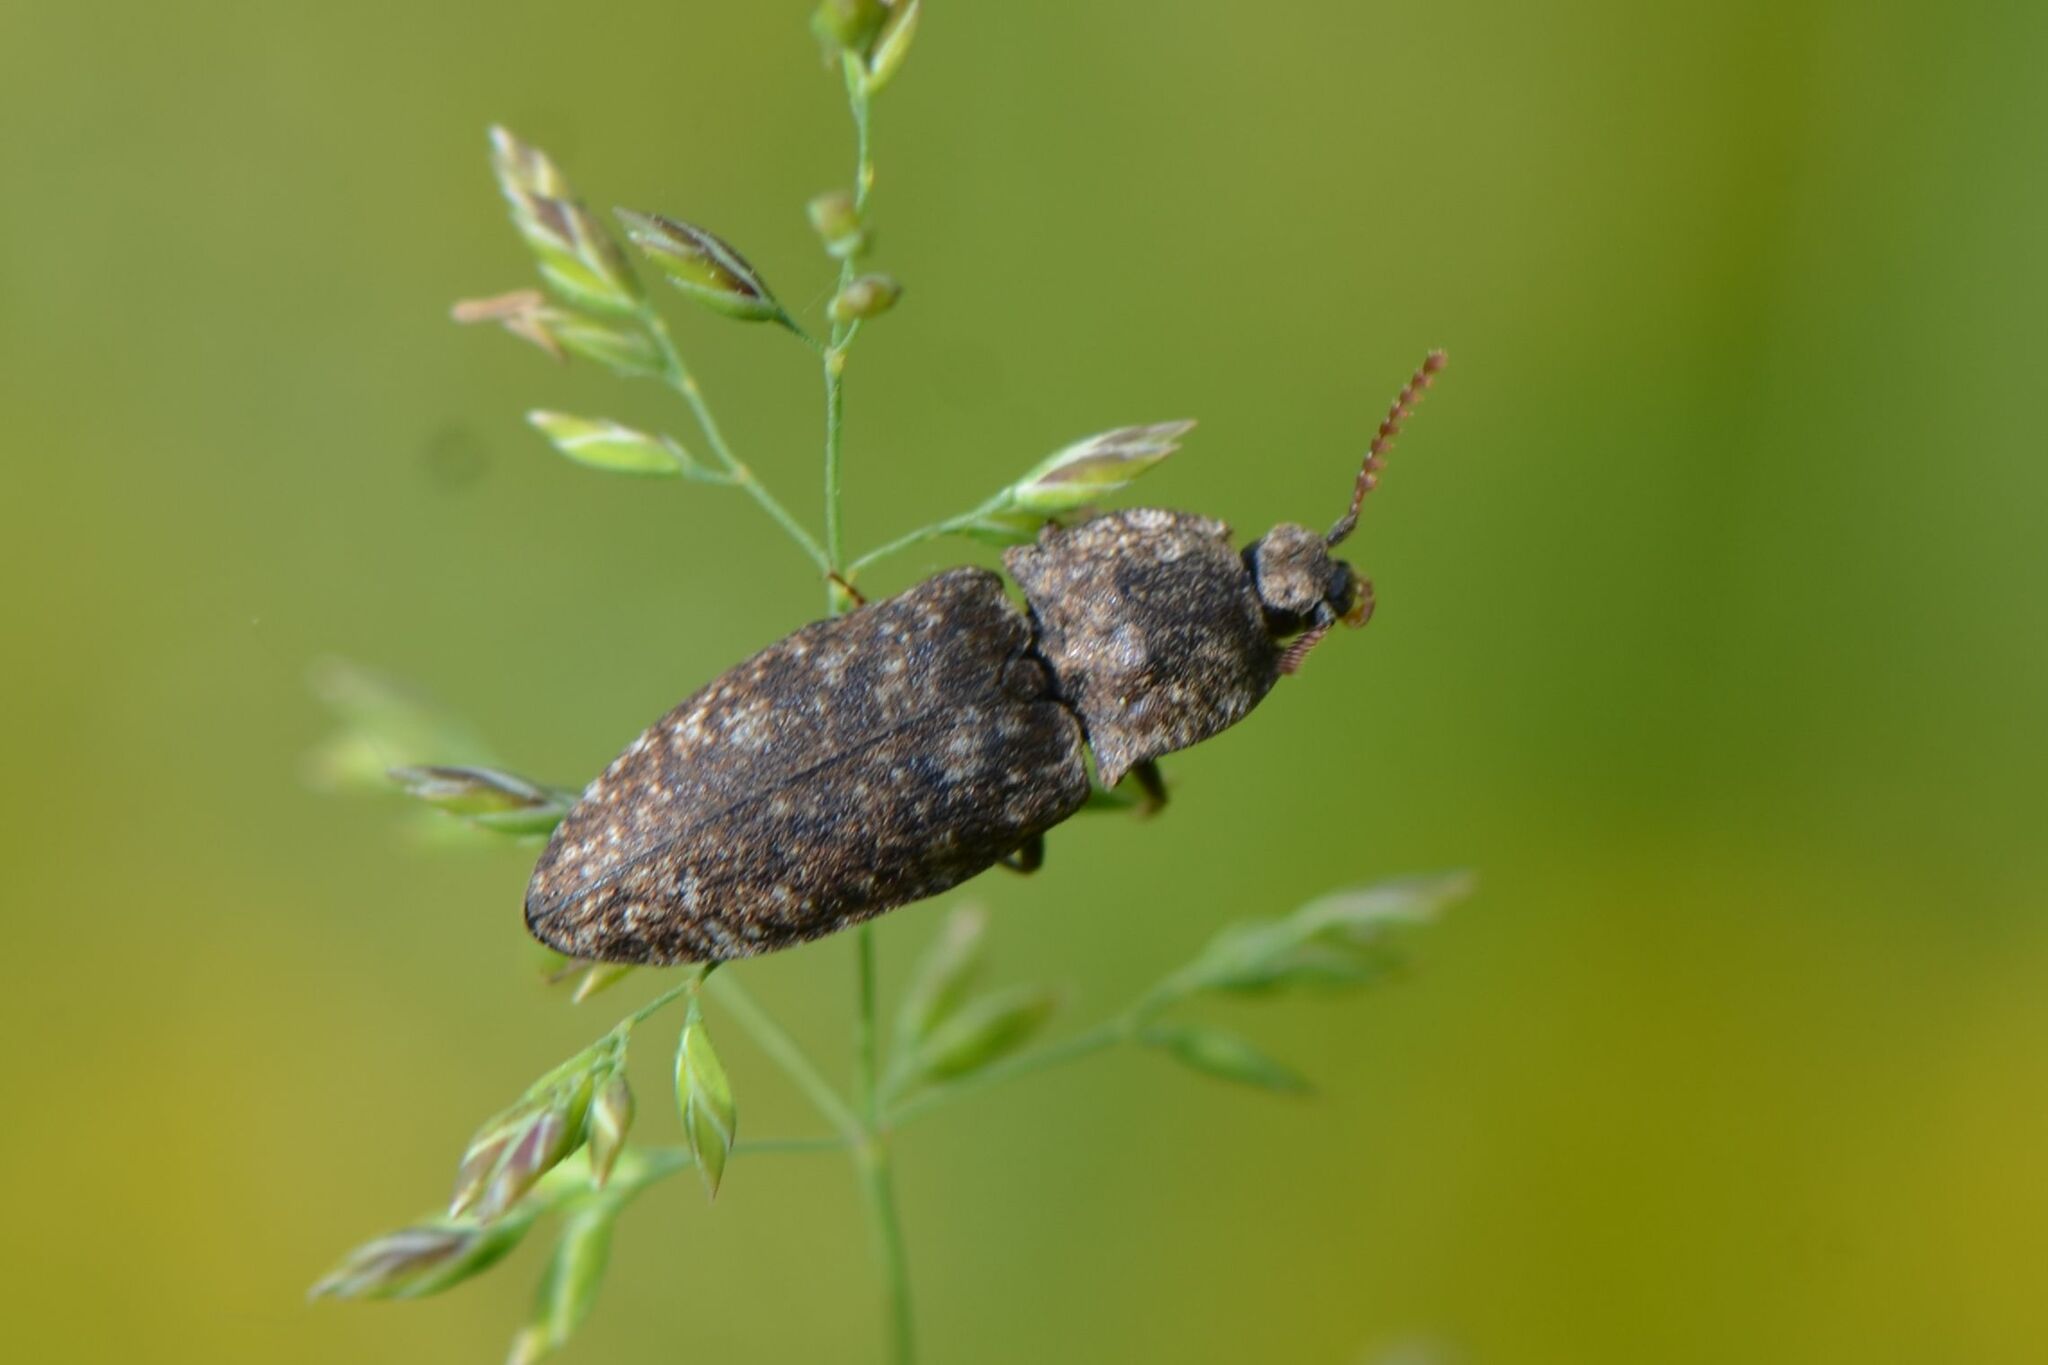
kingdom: Animalia
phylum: Arthropoda
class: Insecta
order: Coleoptera
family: Elateridae
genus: Agrypnus
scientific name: Agrypnus murinus
